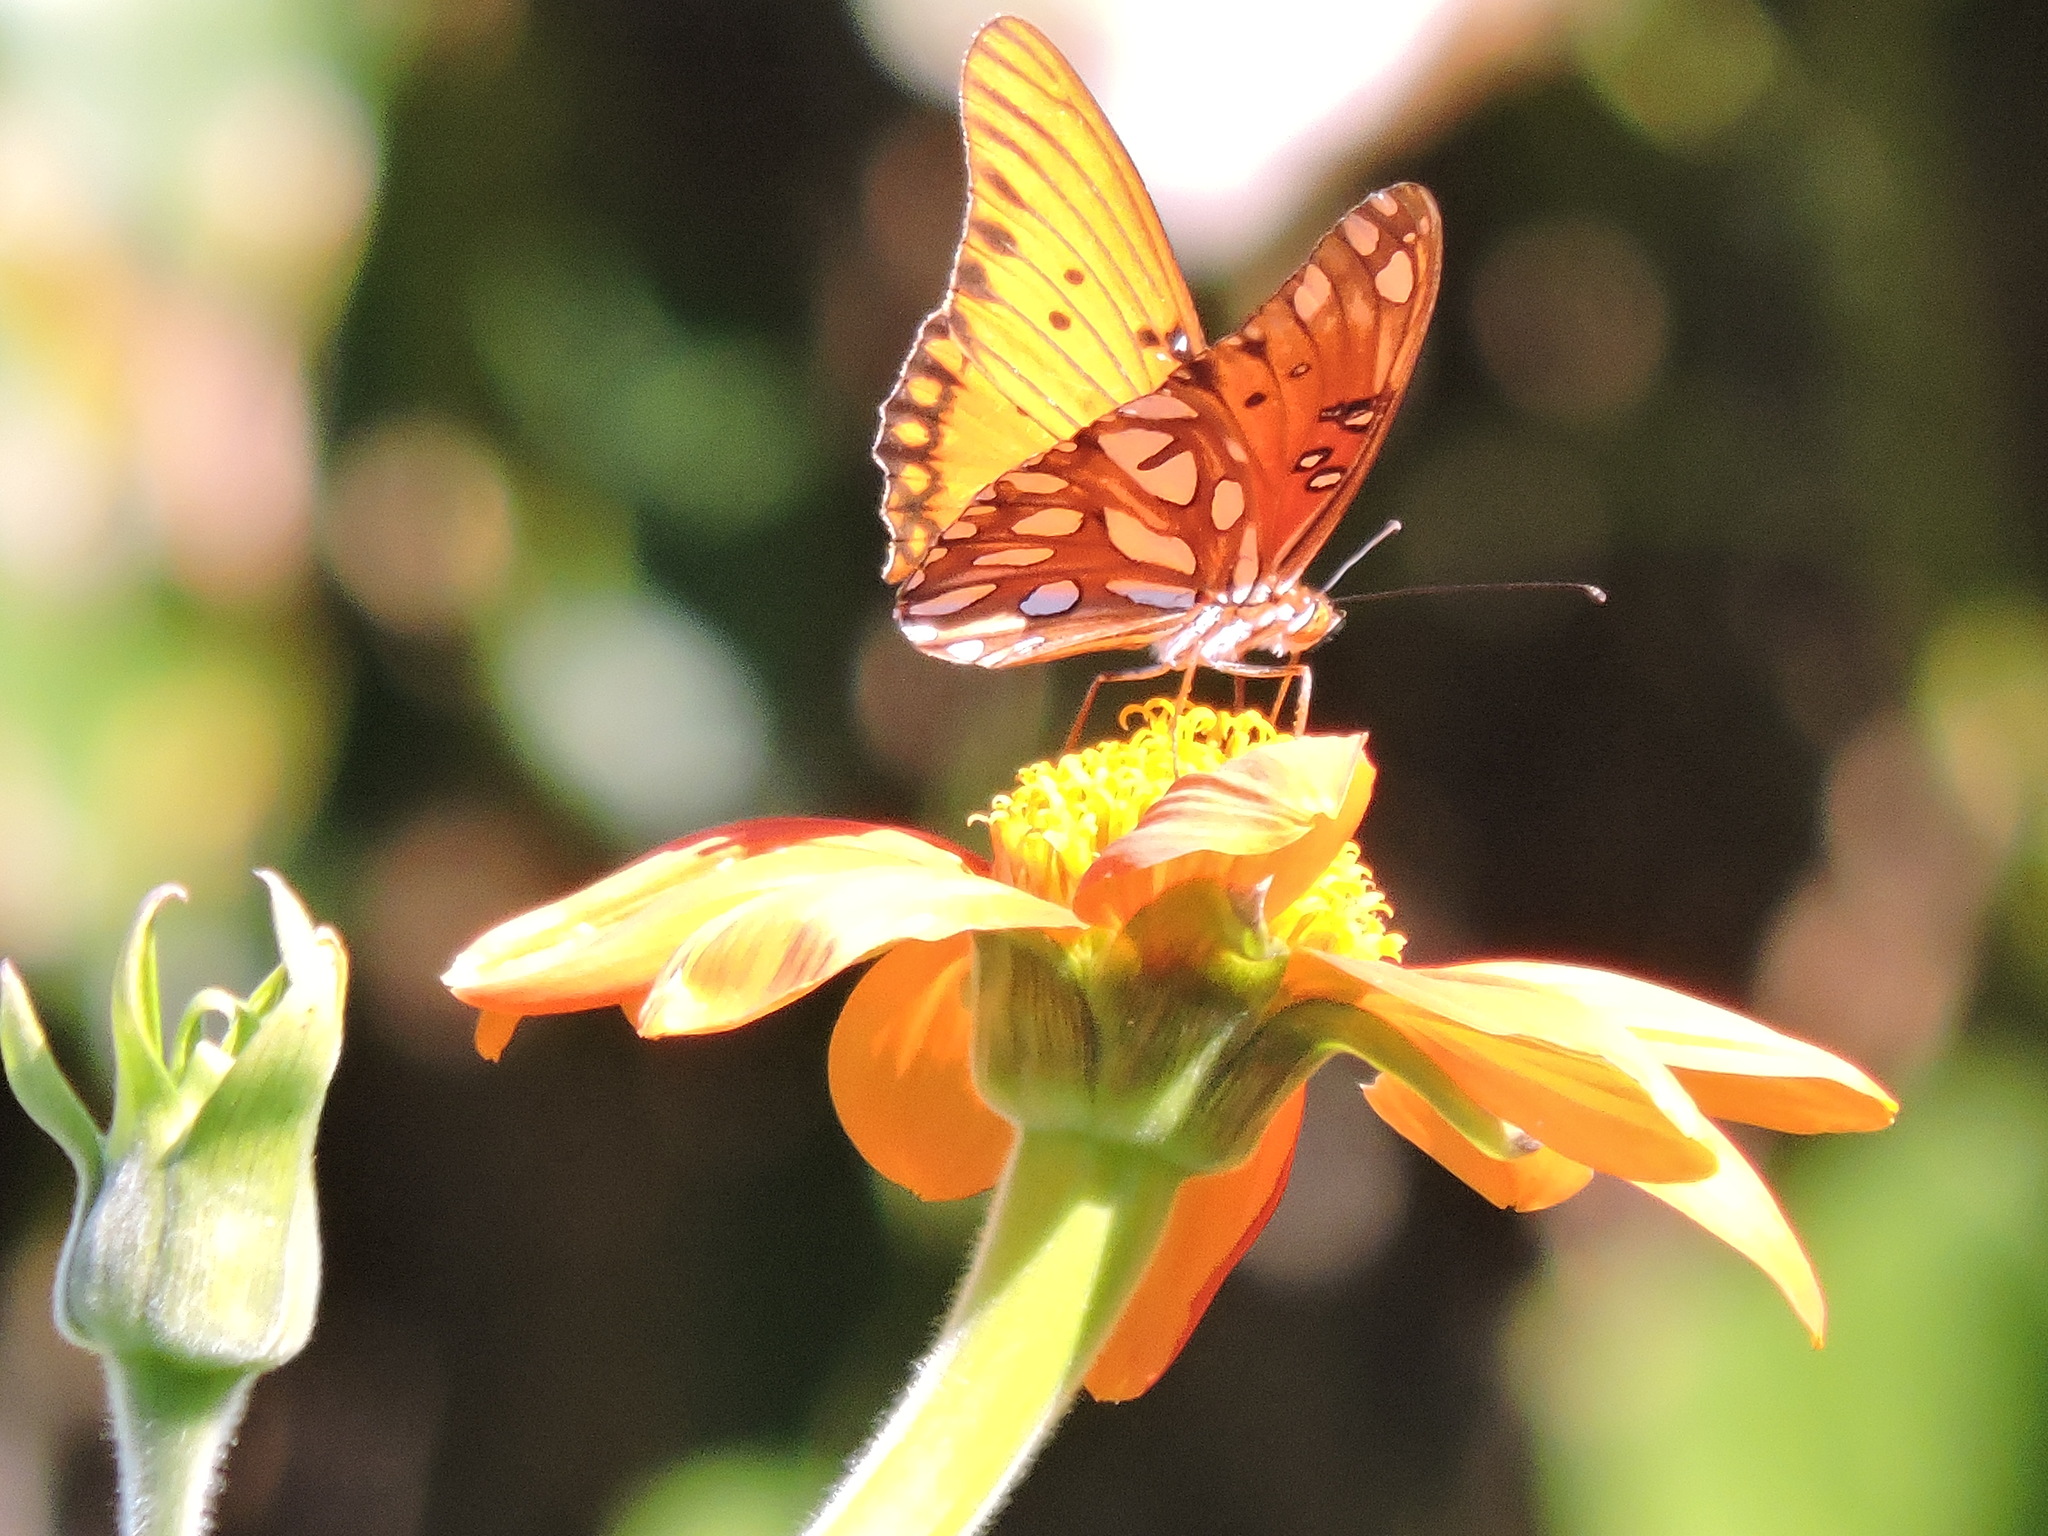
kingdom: Animalia
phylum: Arthropoda
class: Insecta
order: Lepidoptera
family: Nymphalidae
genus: Dione
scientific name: Dione vanillae
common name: Gulf fritillary
